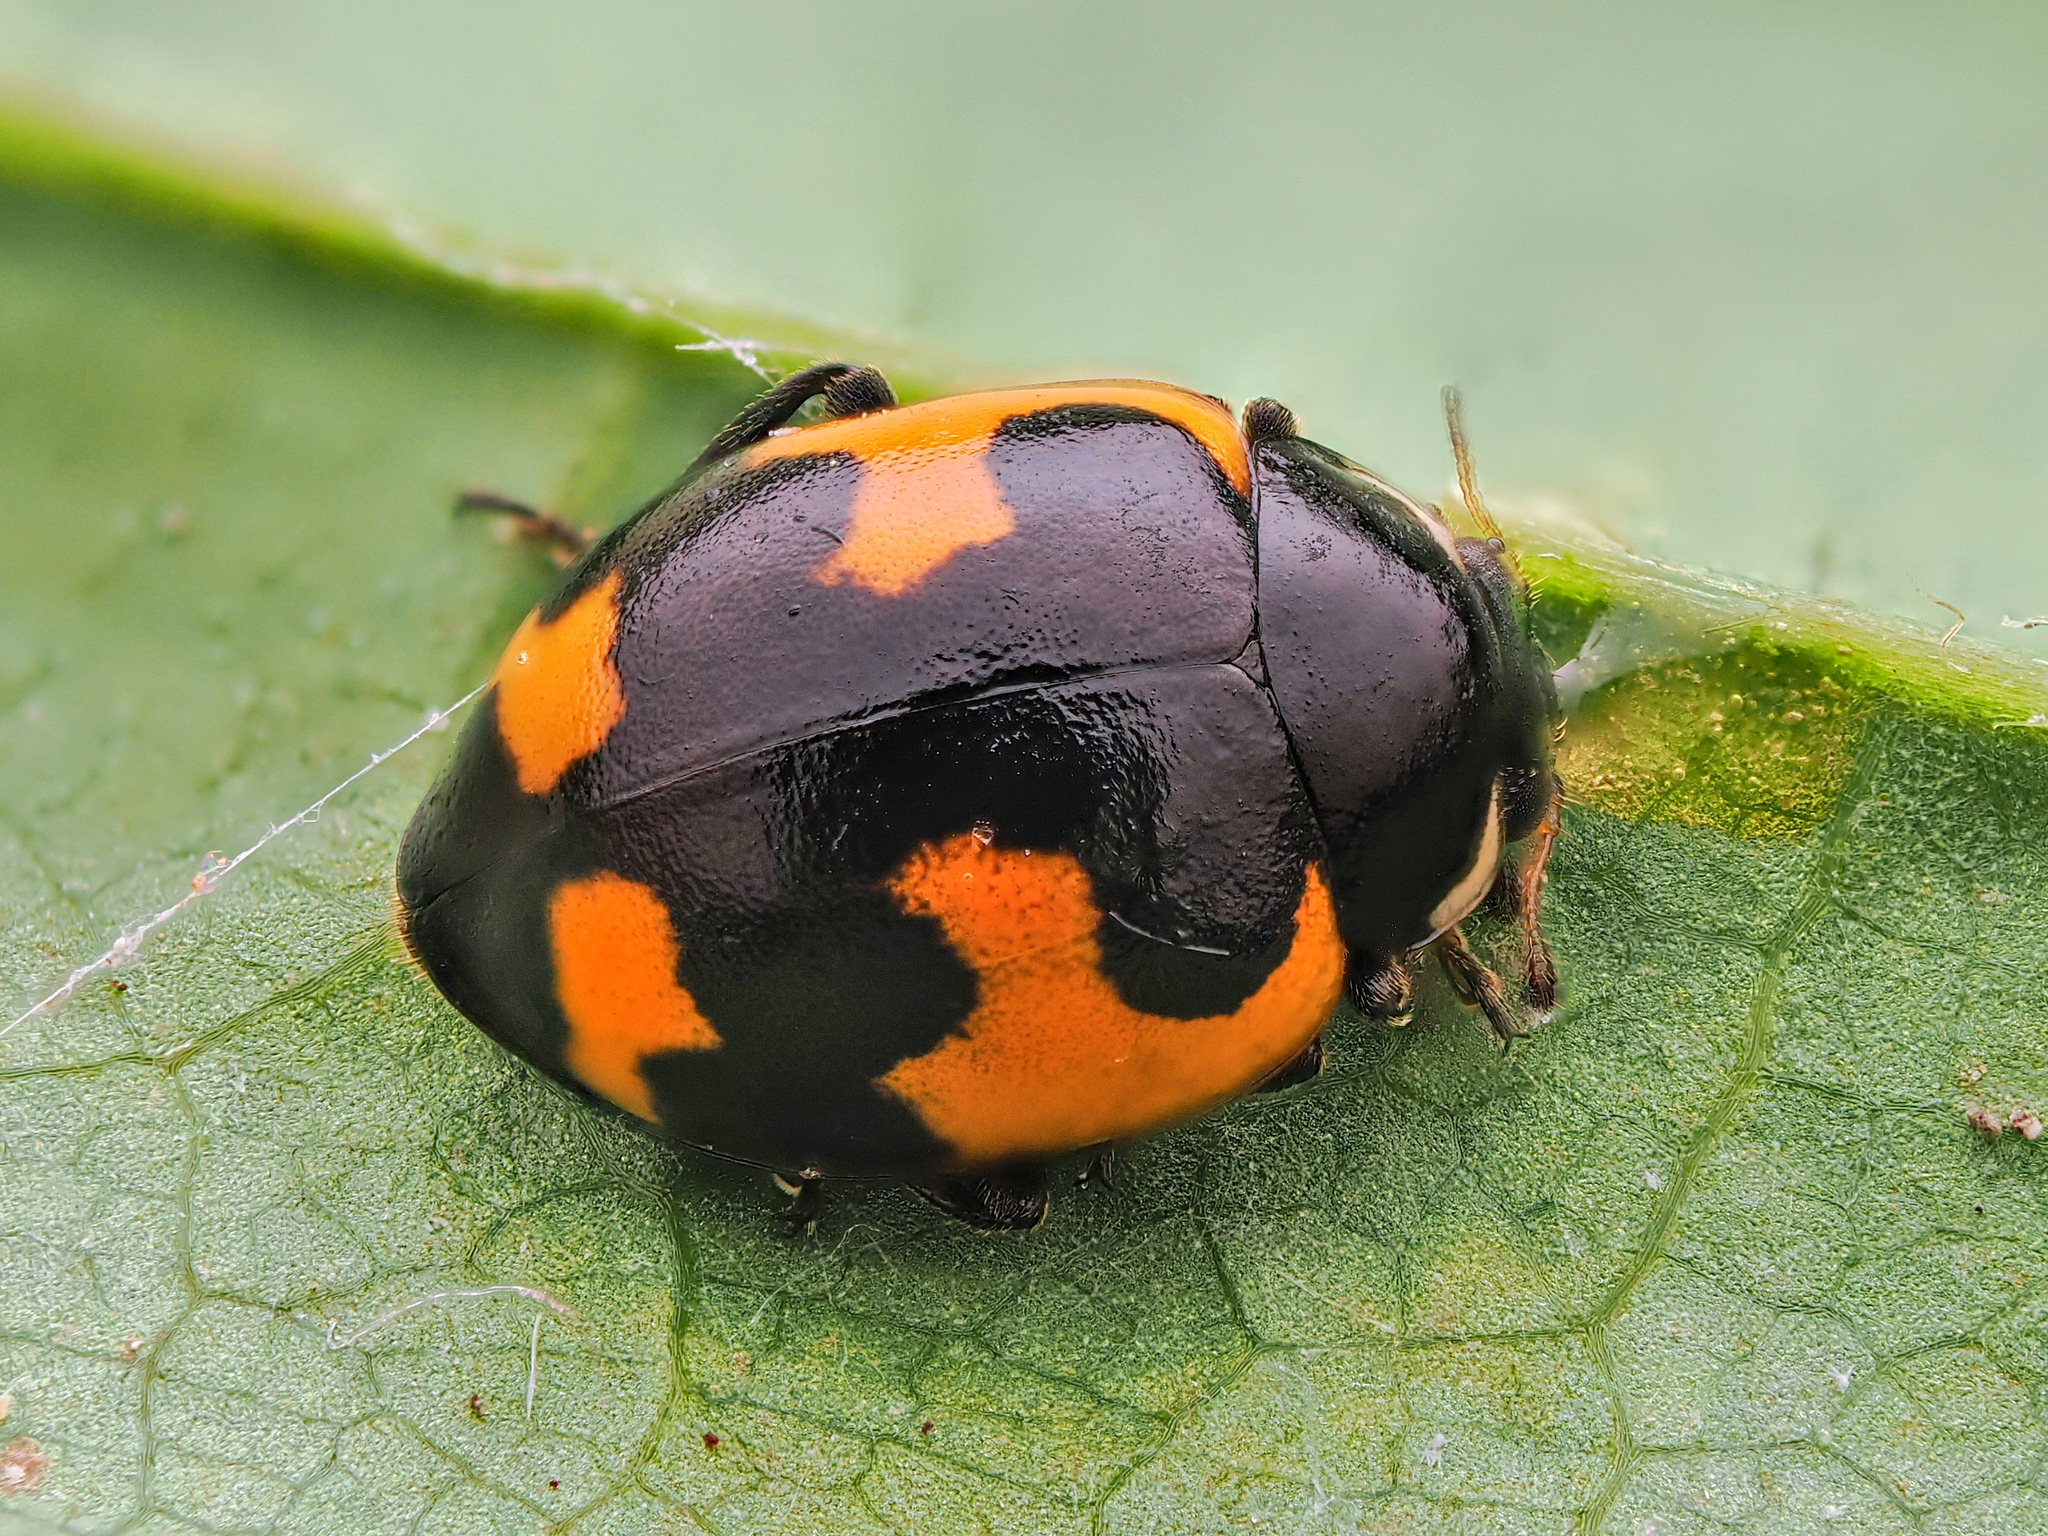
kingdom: Animalia
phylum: Arthropoda
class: Insecta
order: Coleoptera
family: Coccinellidae
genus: Ceratomegilla
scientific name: Ceratomegilla alpina
